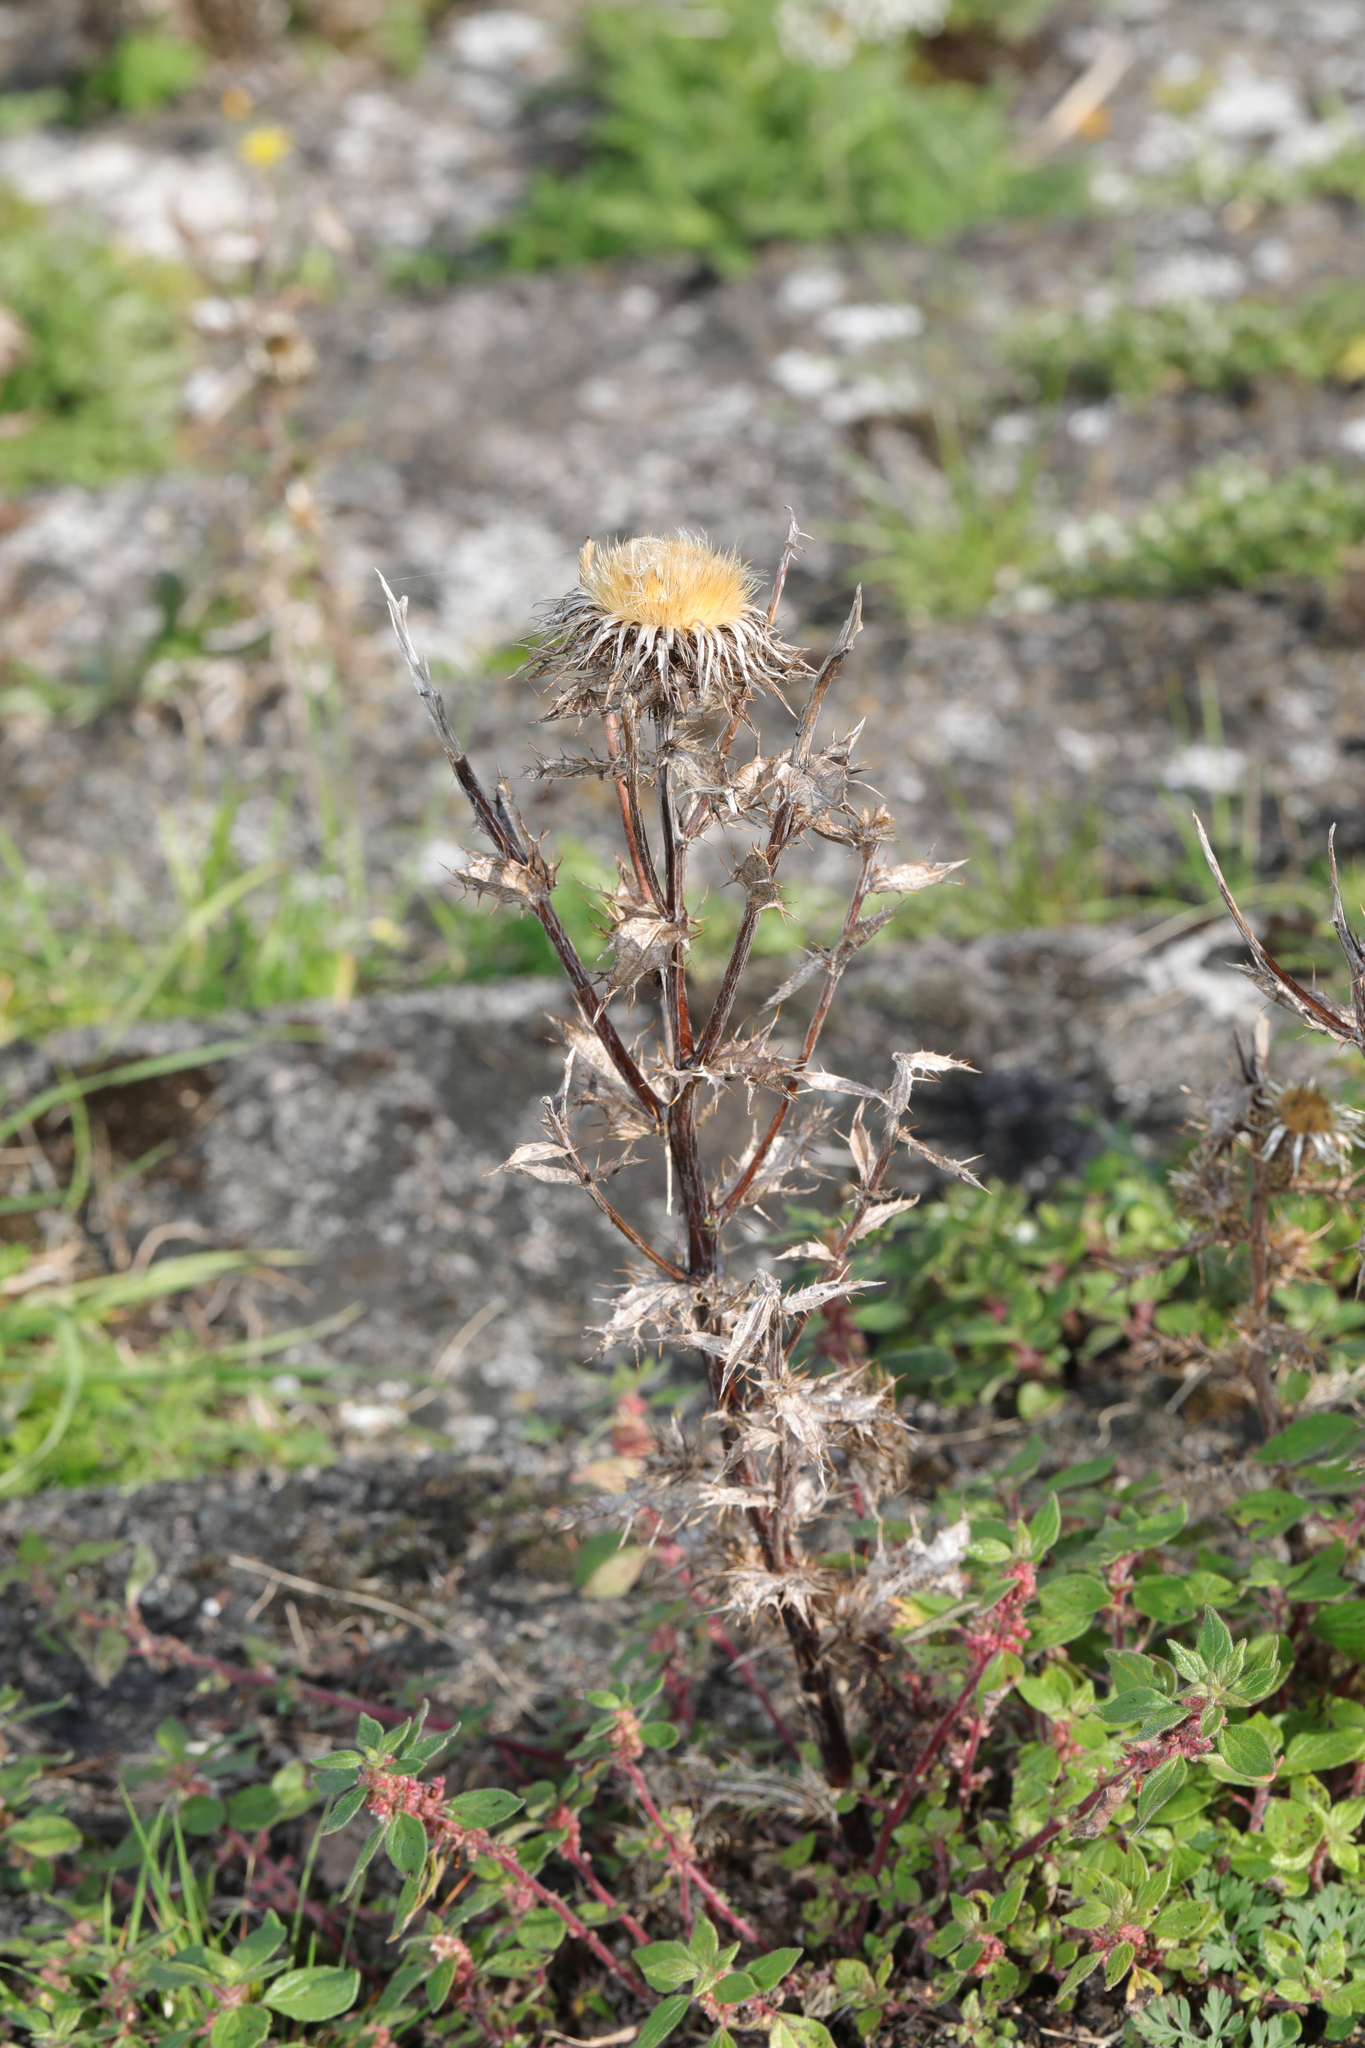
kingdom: Plantae
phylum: Tracheophyta
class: Magnoliopsida
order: Asterales
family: Asteraceae
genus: Carlina
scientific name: Carlina vulgaris
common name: Carline thistle
